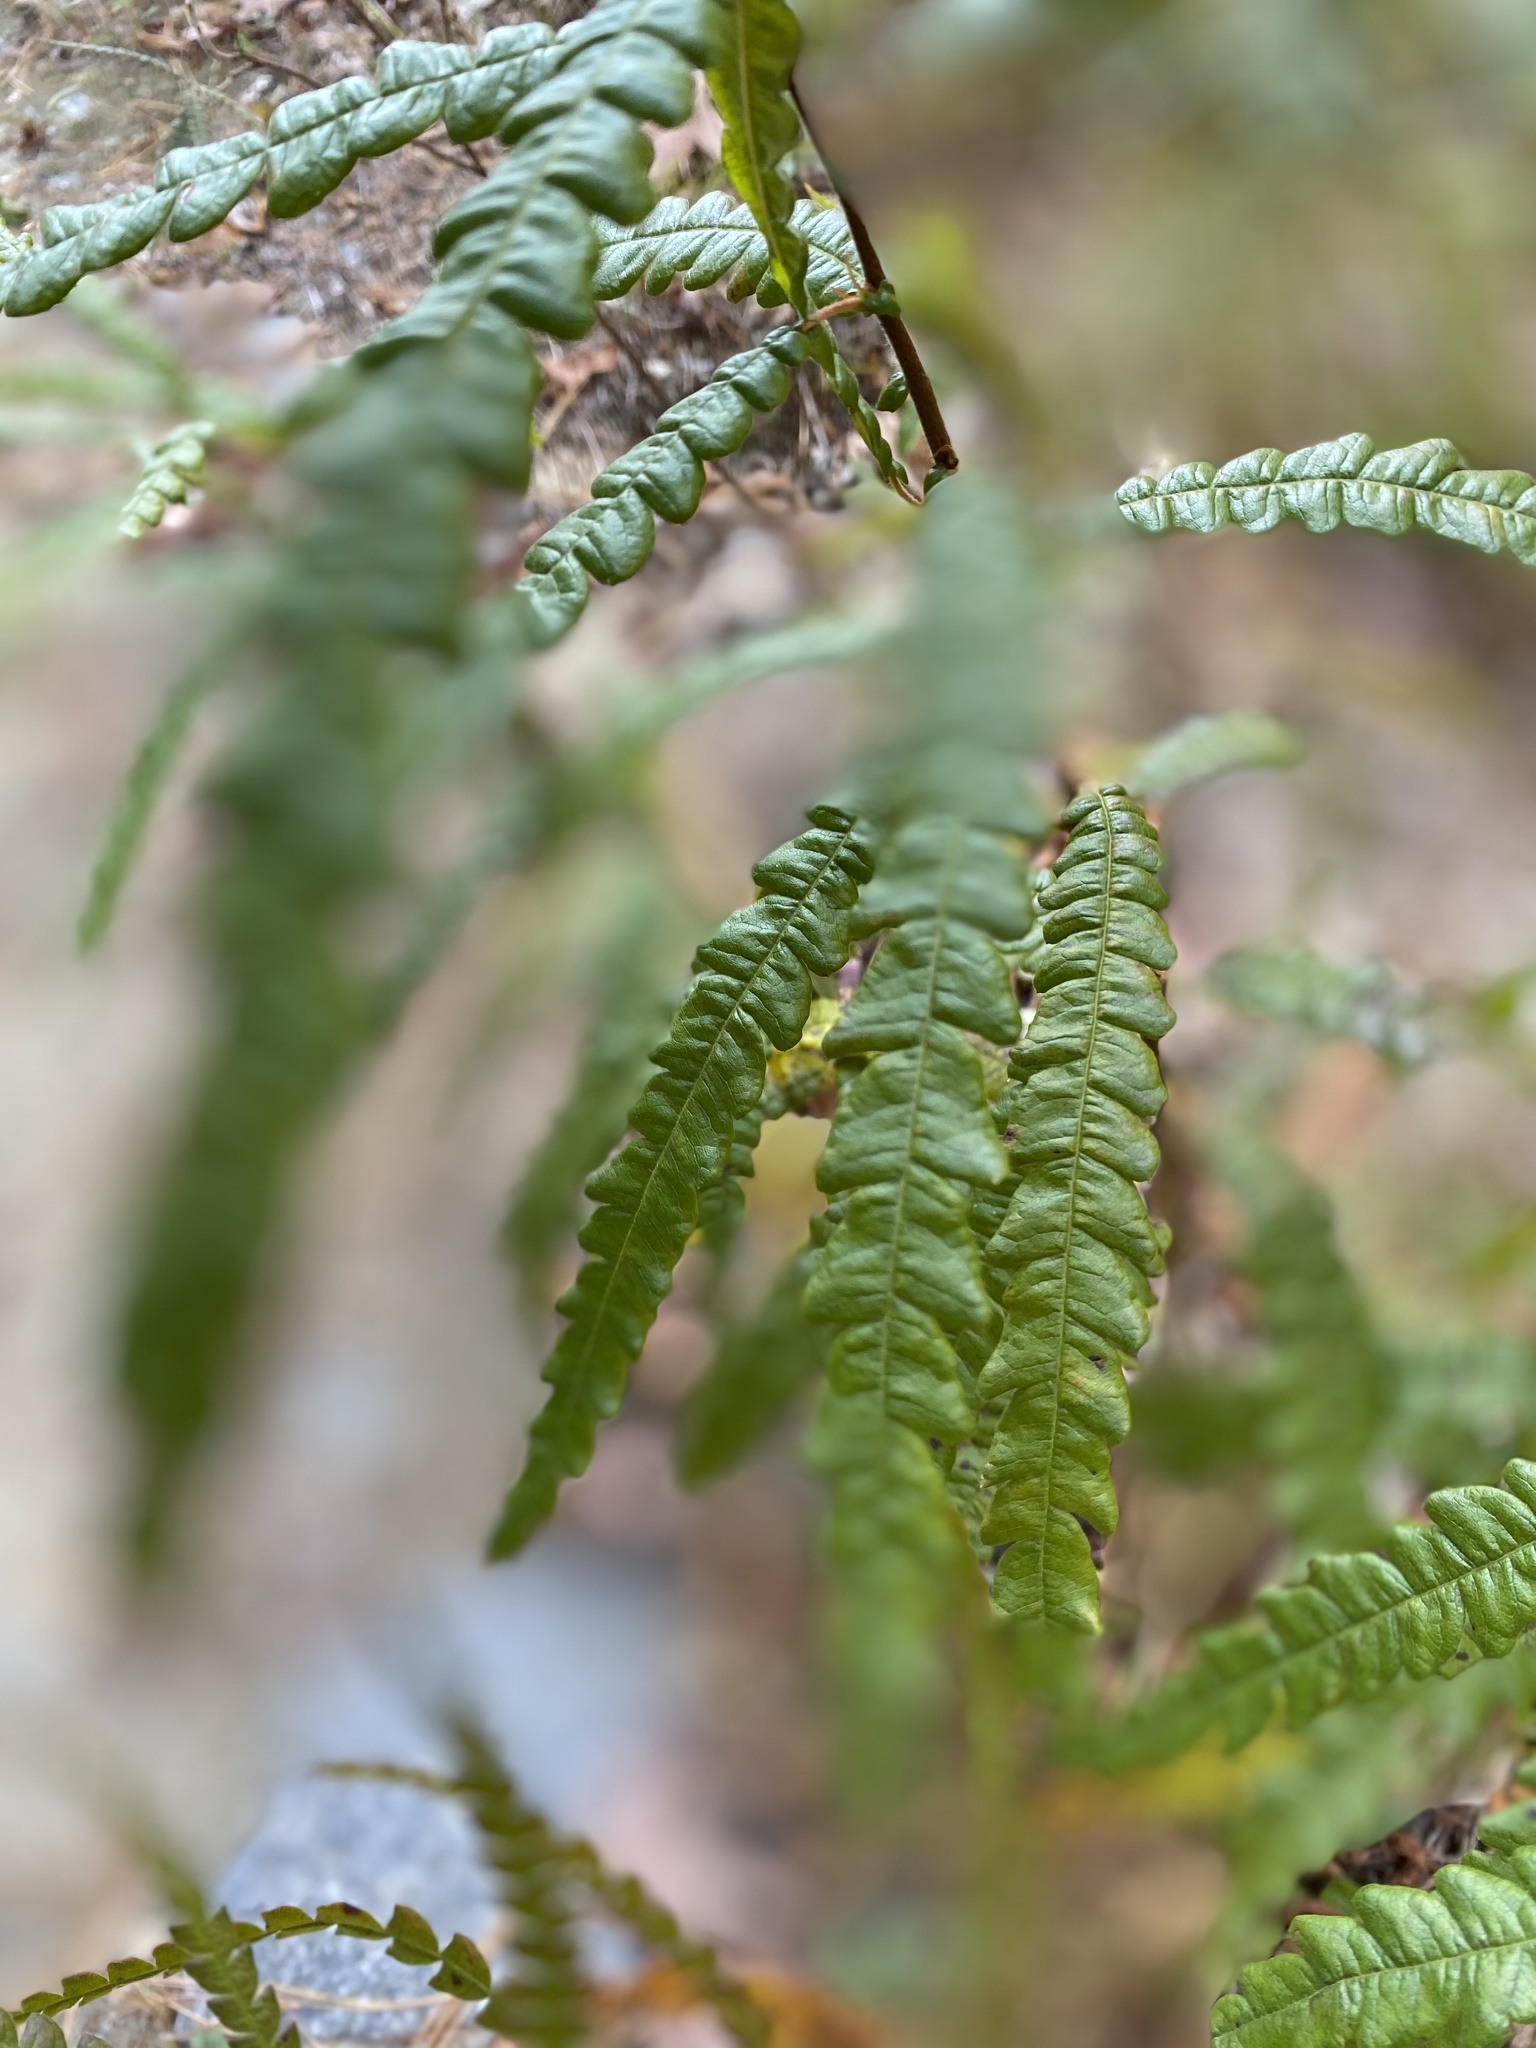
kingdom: Plantae
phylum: Tracheophyta
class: Magnoliopsida
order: Fagales
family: Myricaceae
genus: Comptonia
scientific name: Comptonia peregrina
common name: Sweet-fern
